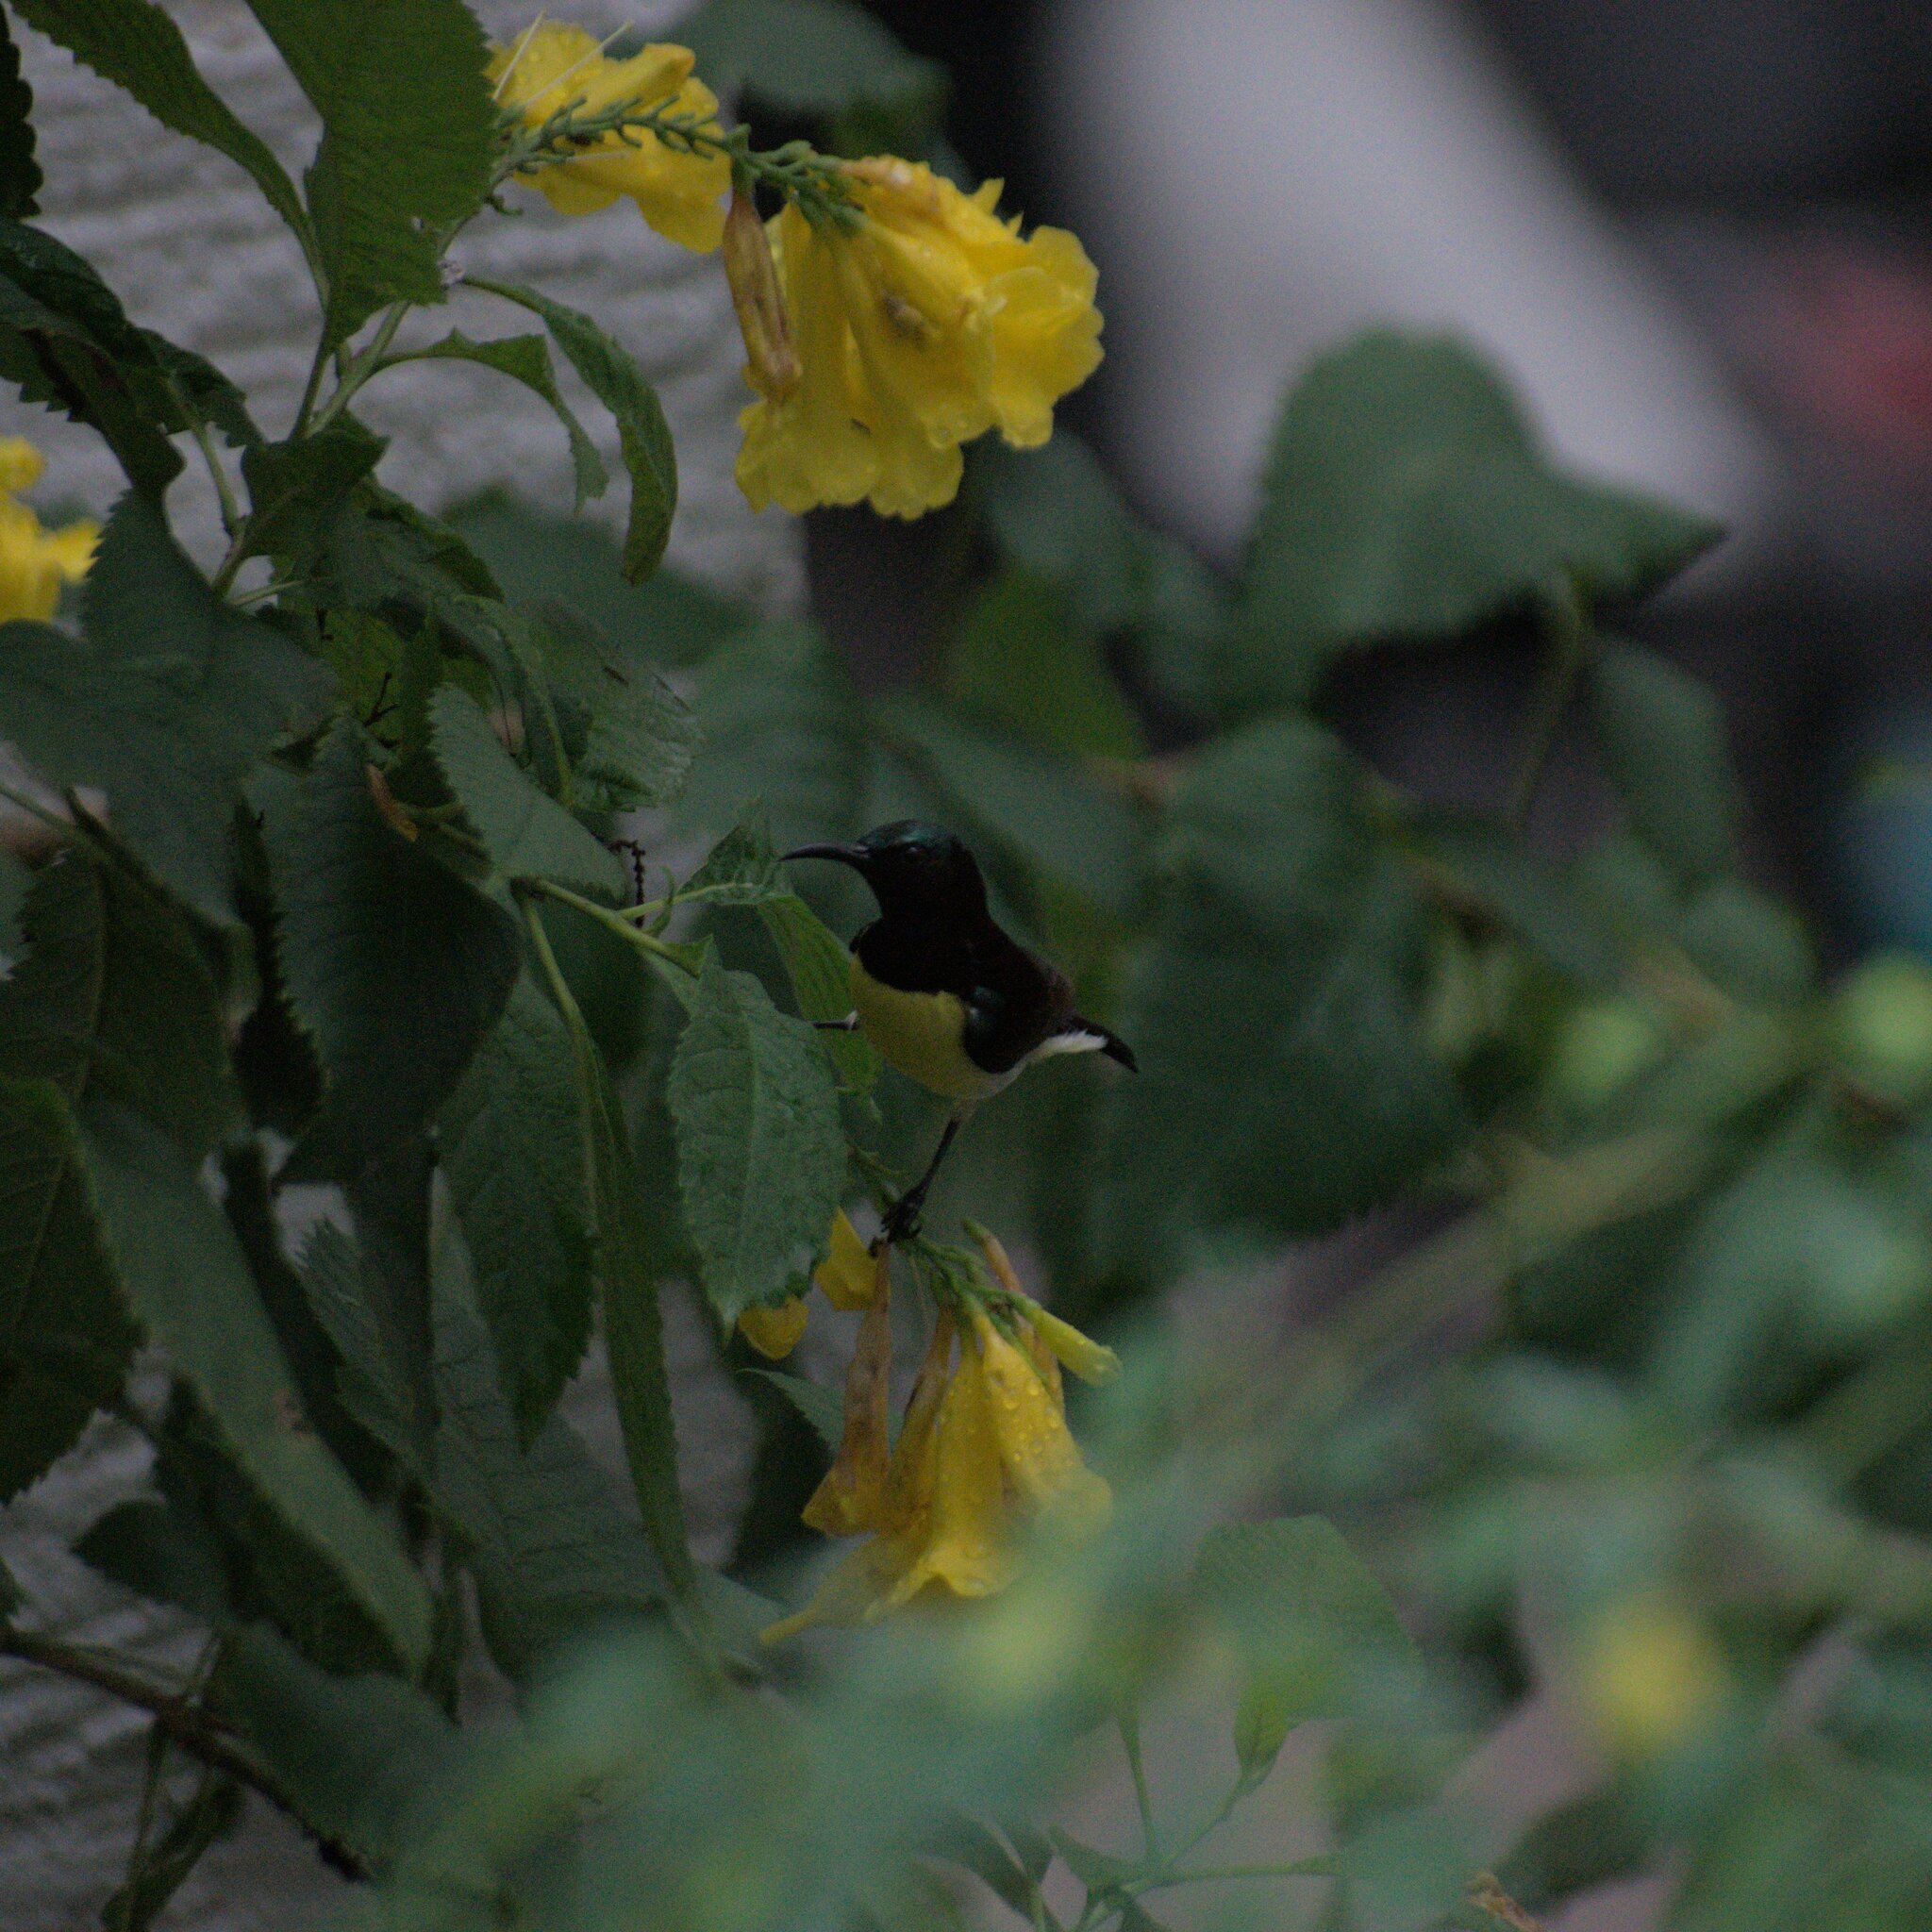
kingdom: Plantae
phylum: Tracheophyta
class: Magnoliopsida
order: Lamiales
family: Bignoniaceae
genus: Tecoma
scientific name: Tecoma stans
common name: Yellow trumpetbush
